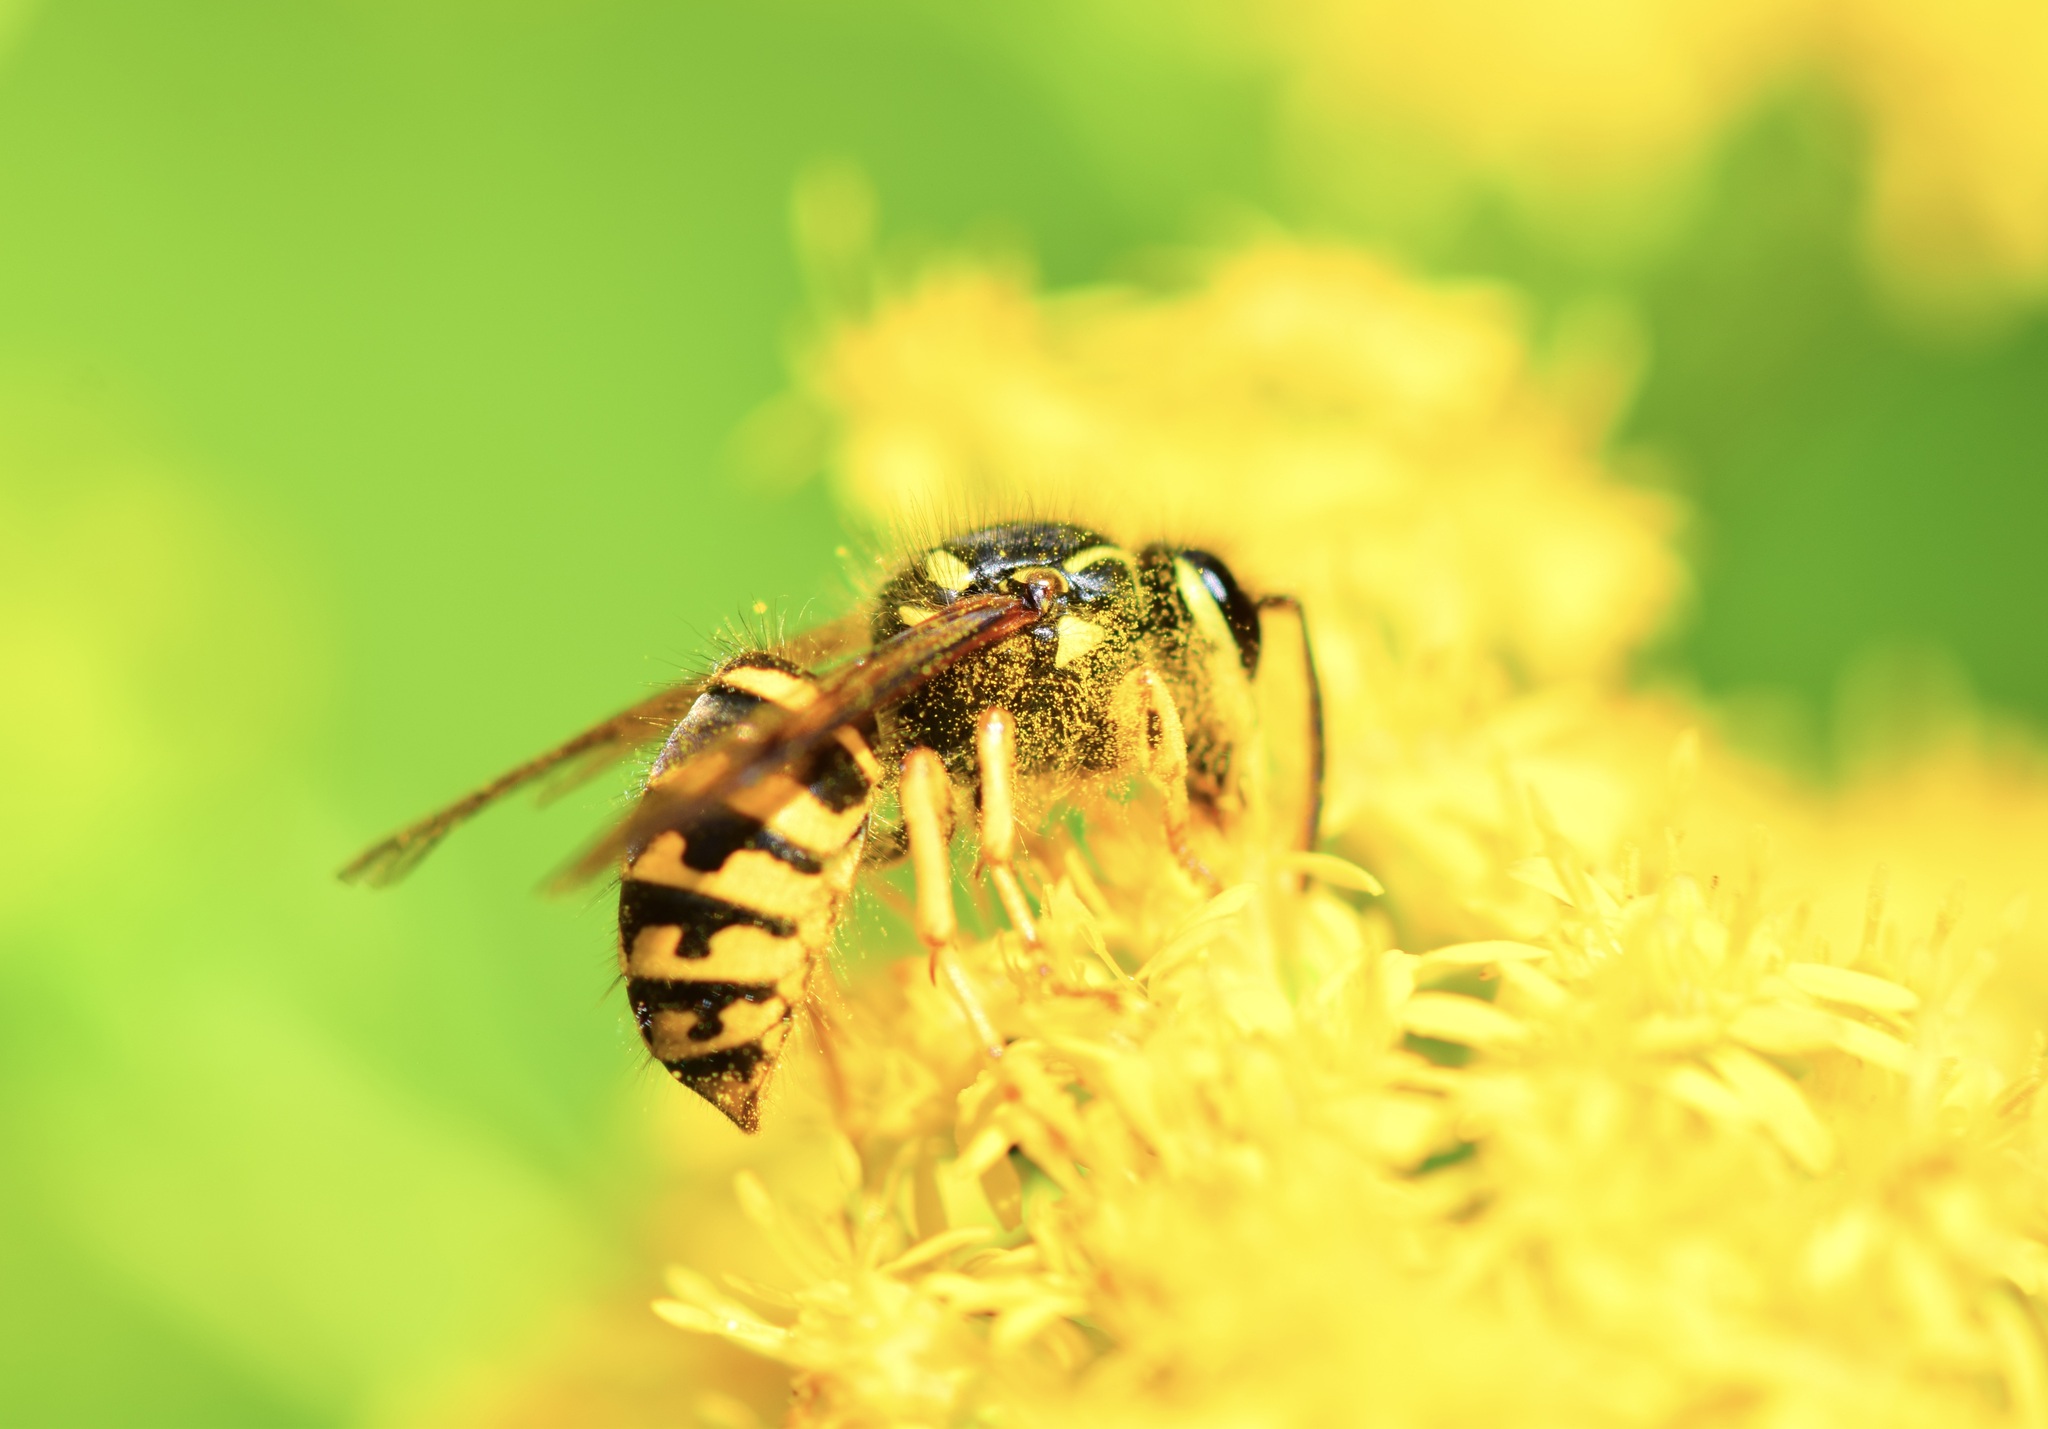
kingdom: Animalia
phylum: Arthropoda
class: Insecta
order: Hymenoptera
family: Vespidae
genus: Dolichovespula
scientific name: Dolichovespula arenaria
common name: Aerial yellowjacket
